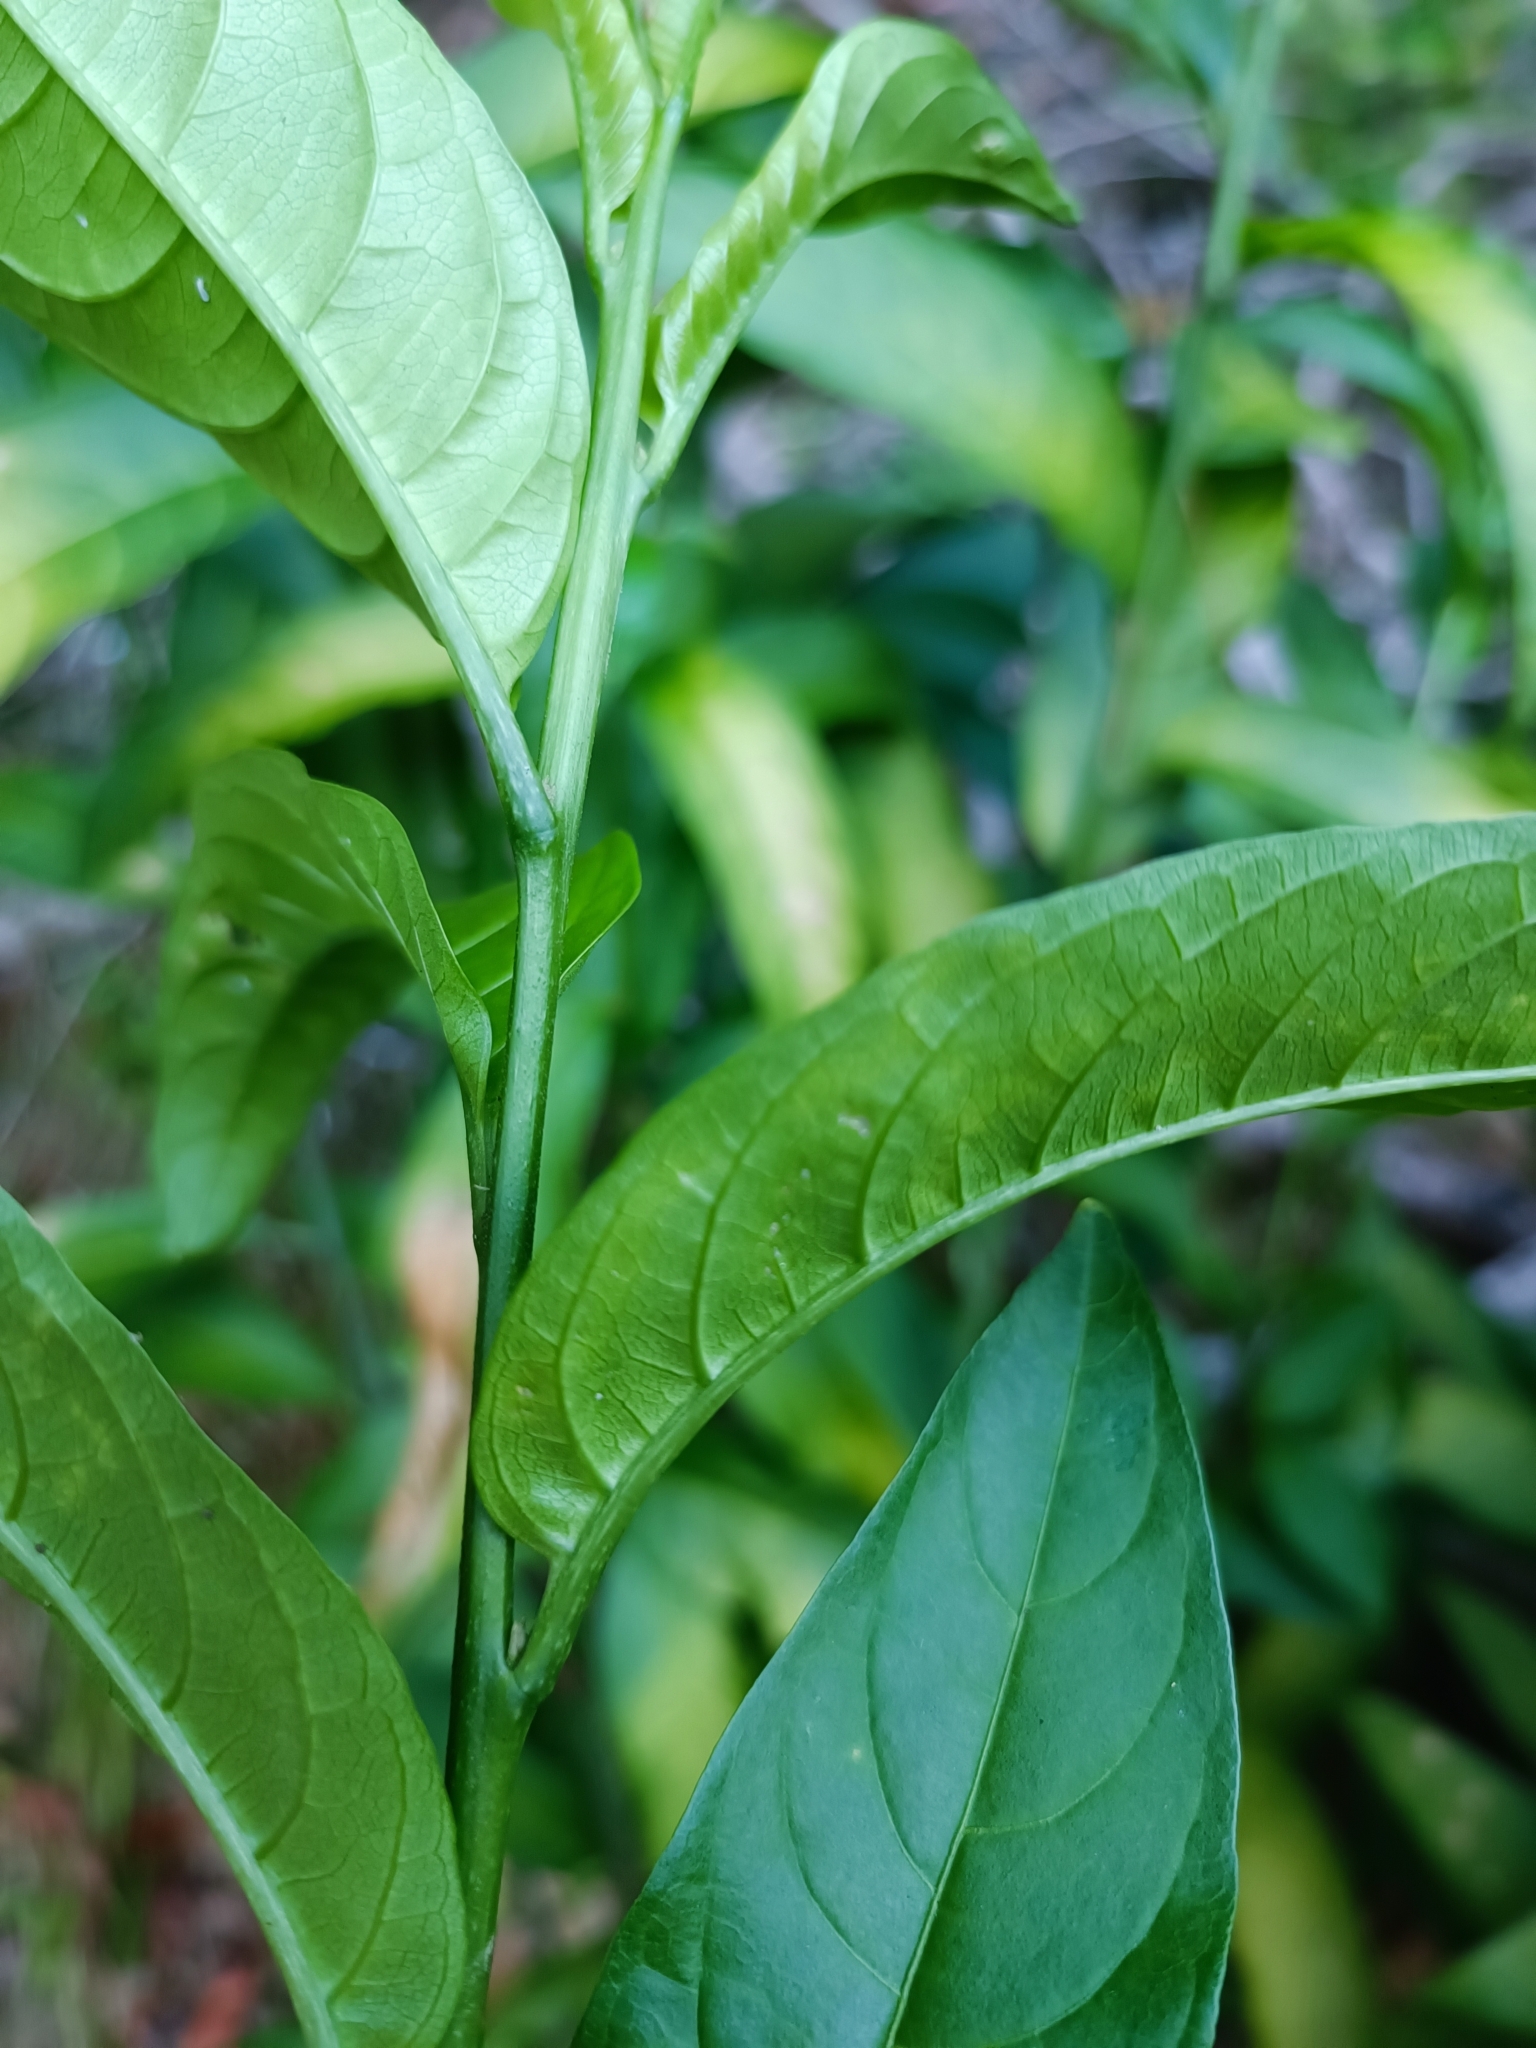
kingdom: Plantae
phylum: Tracheophyta
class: Magnoliopsida
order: Solanales
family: Solanaceae
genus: Cestrum
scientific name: Cestrum nocturnum
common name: Night jessamine
